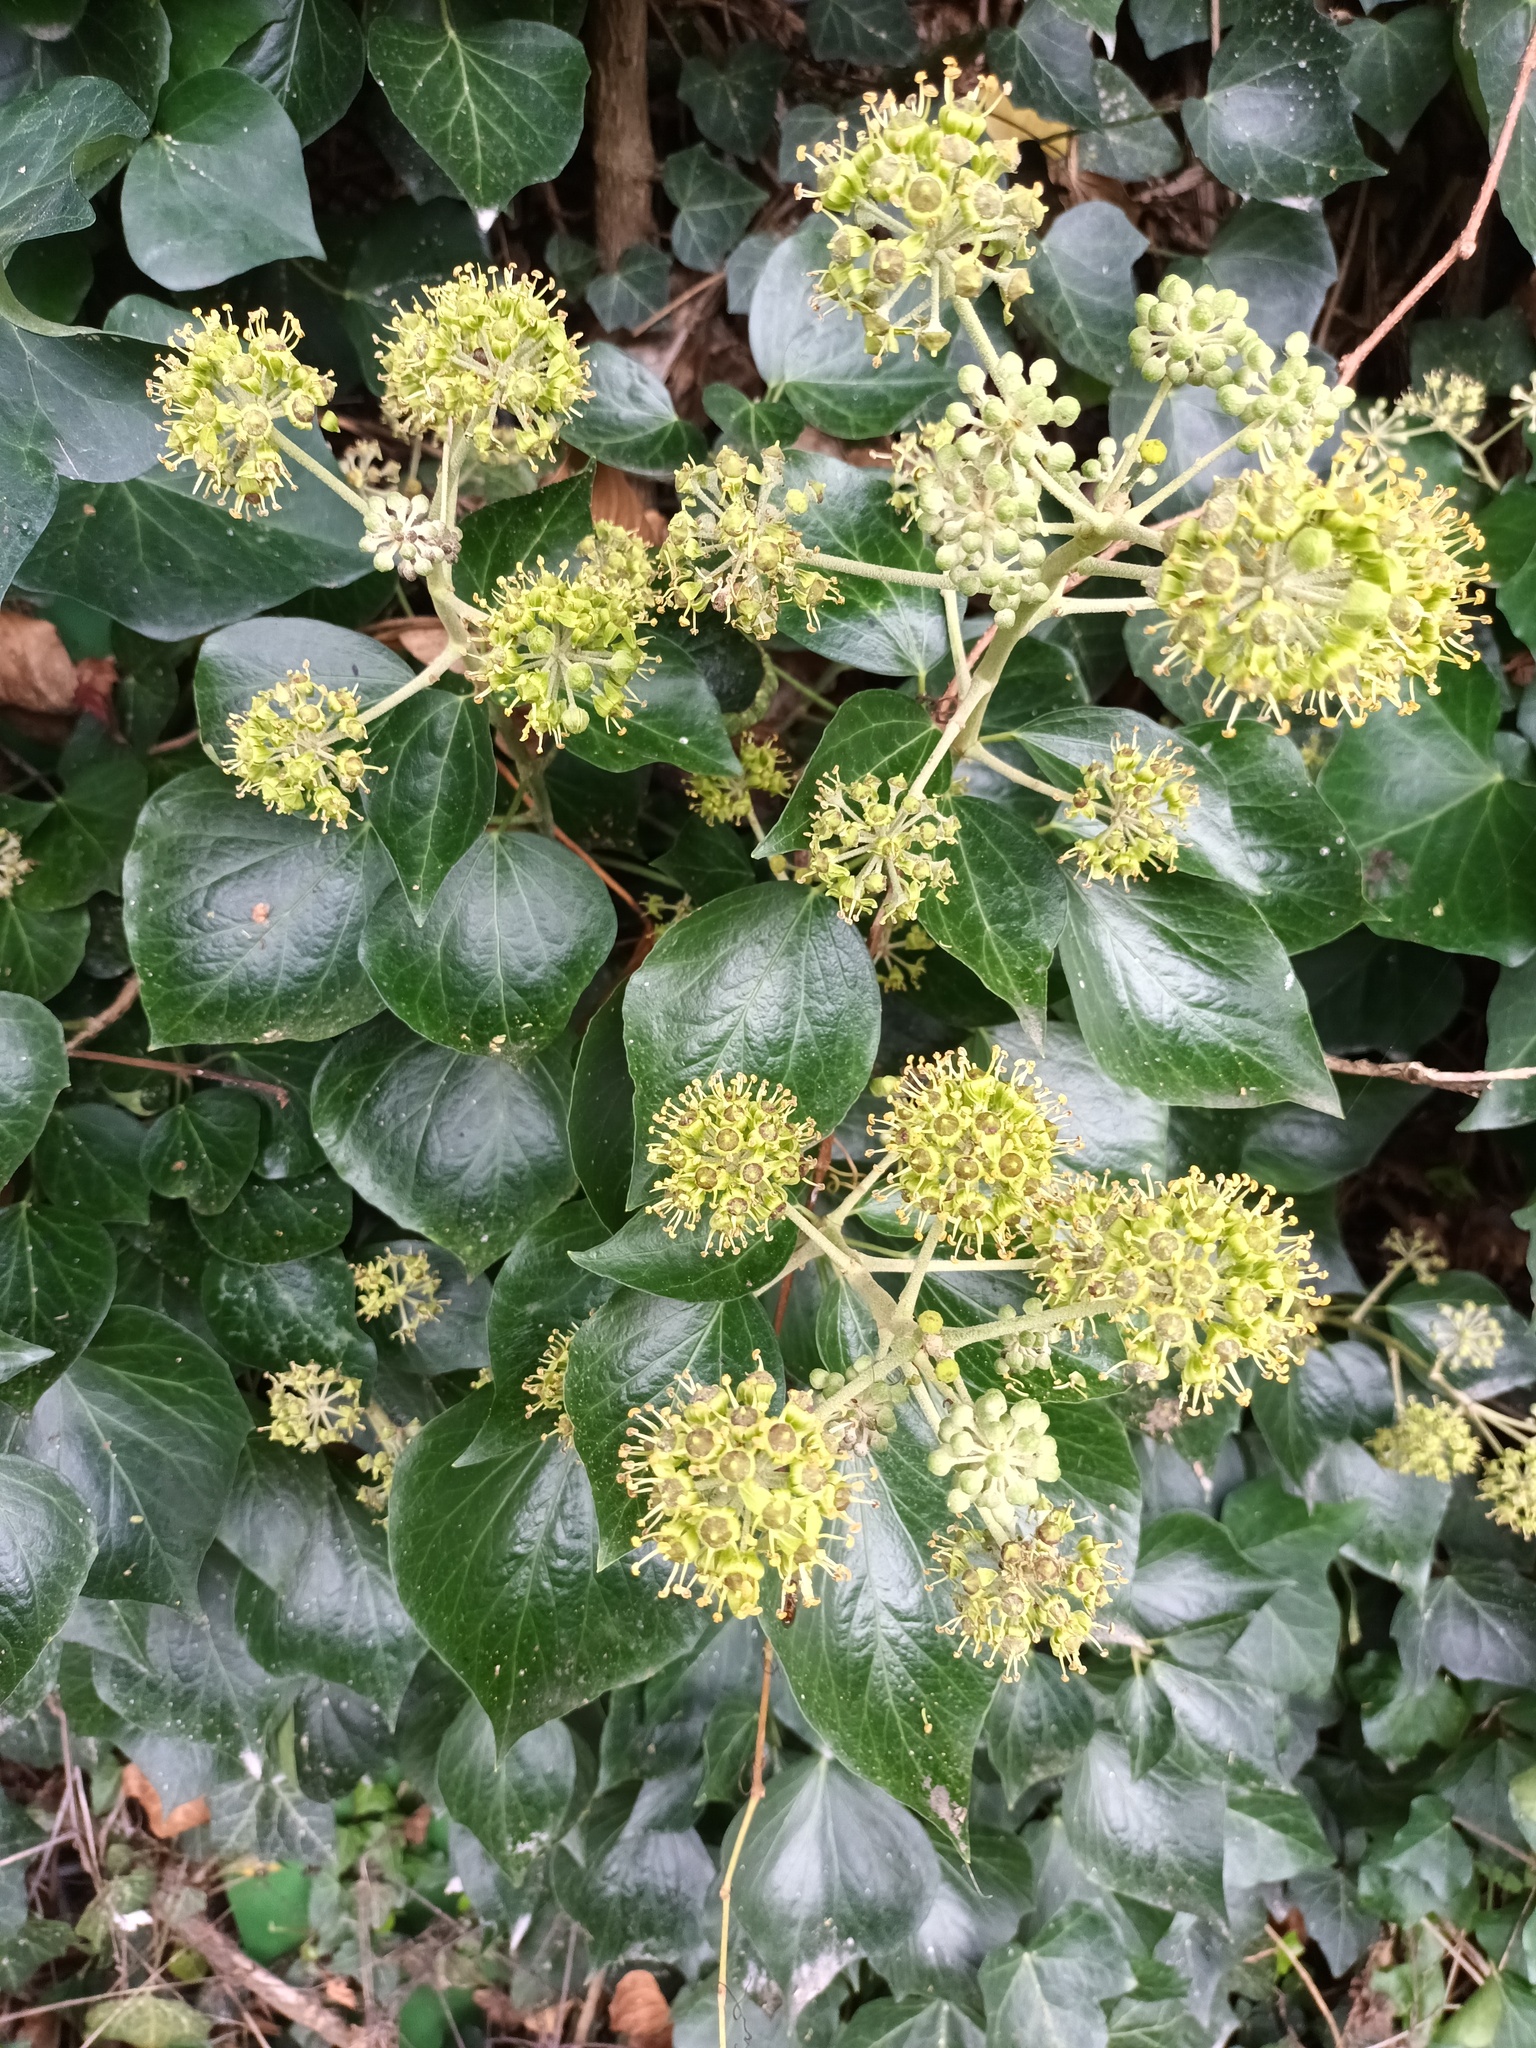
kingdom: Plantae
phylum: Tracheophyta
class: Magnoliopsida
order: Apiales
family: Araliaceae
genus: Hedera
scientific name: Hedera helix
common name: Ivy
